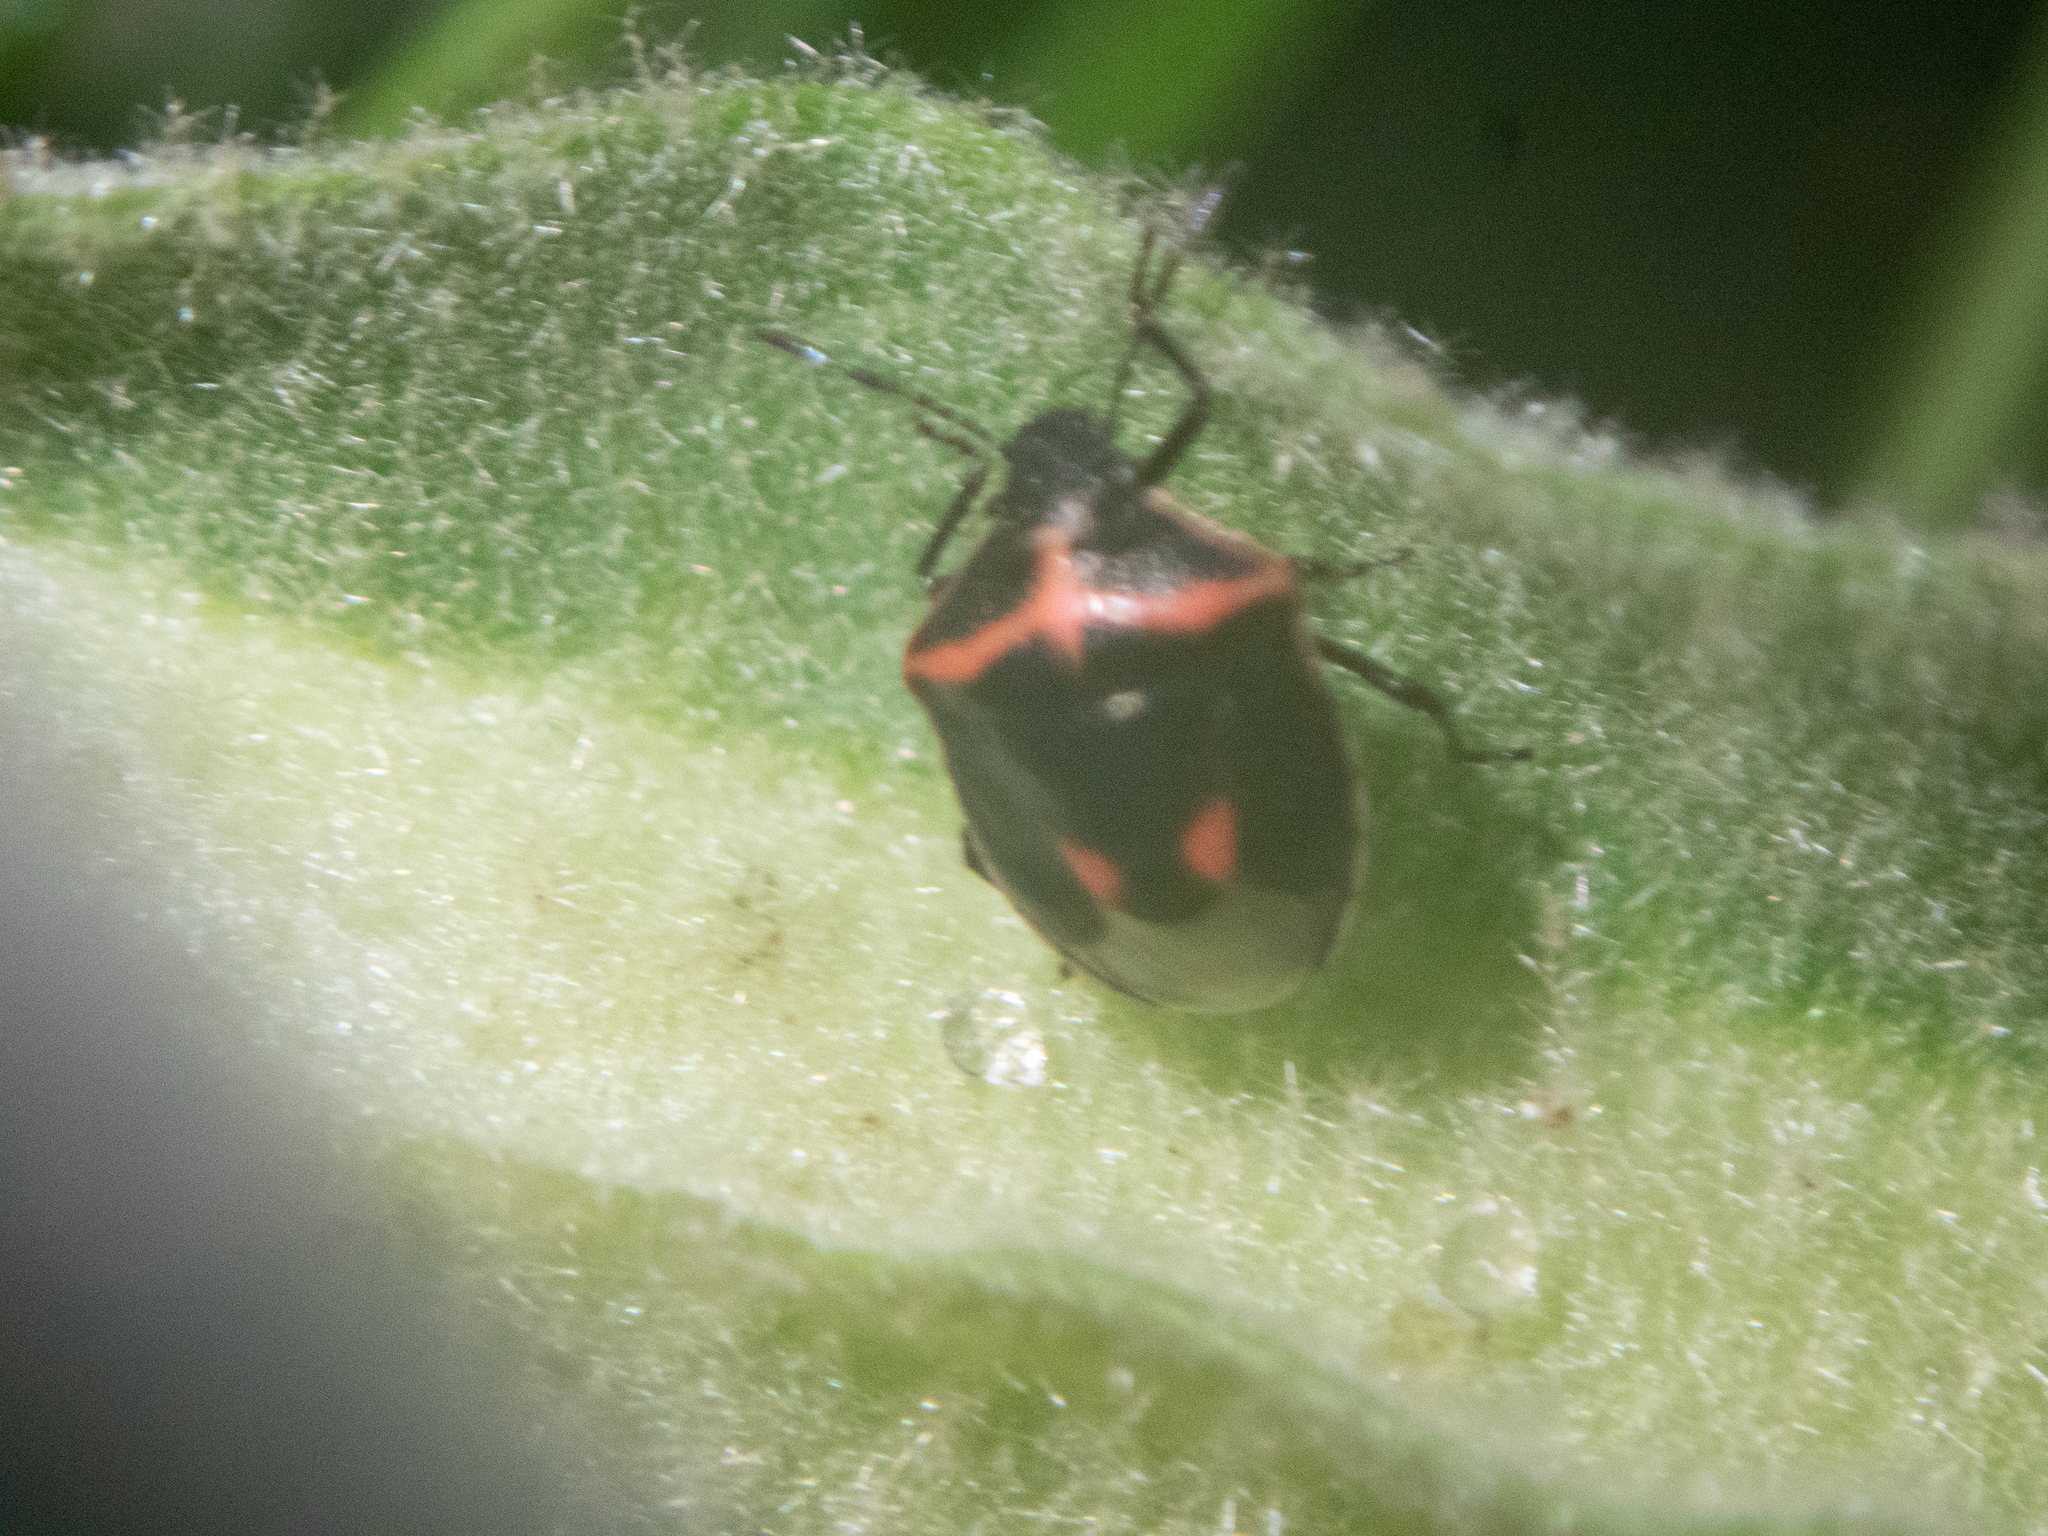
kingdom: Animalia
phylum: Arthropoda
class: Insecta
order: Hemiptera
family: Pentatomidae
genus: Cosmopepla
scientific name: Cosmopepla lintneriana
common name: Twice-stabbed stink bug
